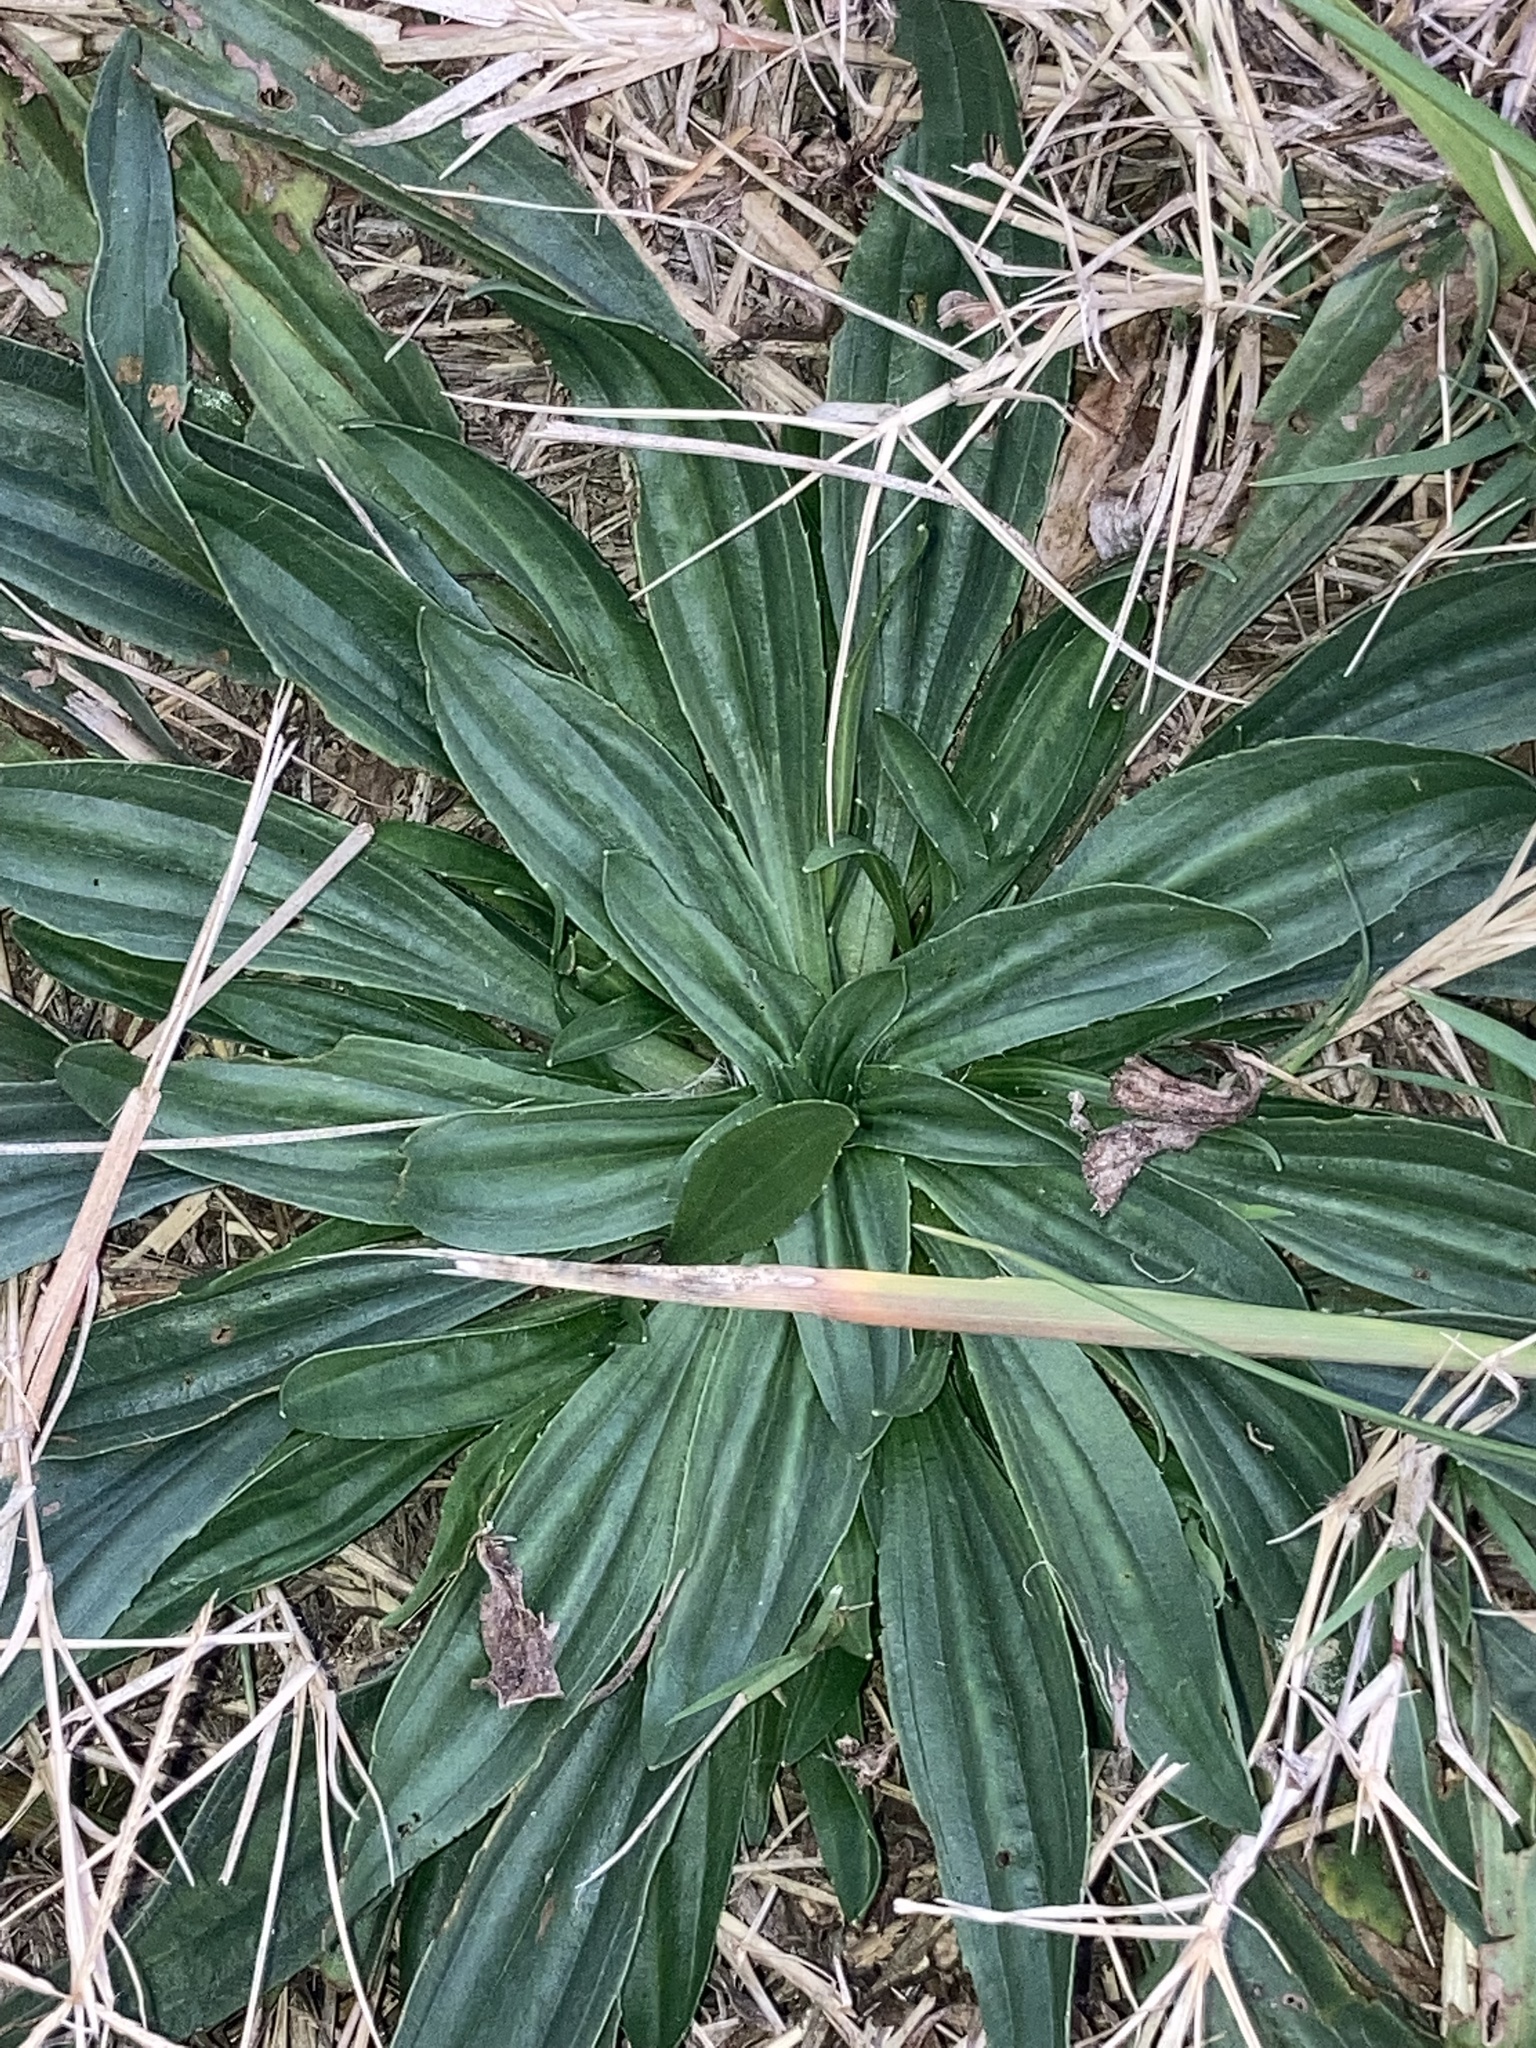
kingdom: Plantae
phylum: Tracheophyta
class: Magnoliopsida
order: Lamiales
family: Plantaginaceae
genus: Plantago
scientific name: Plantago lanceolata
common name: Ribwort plantain
